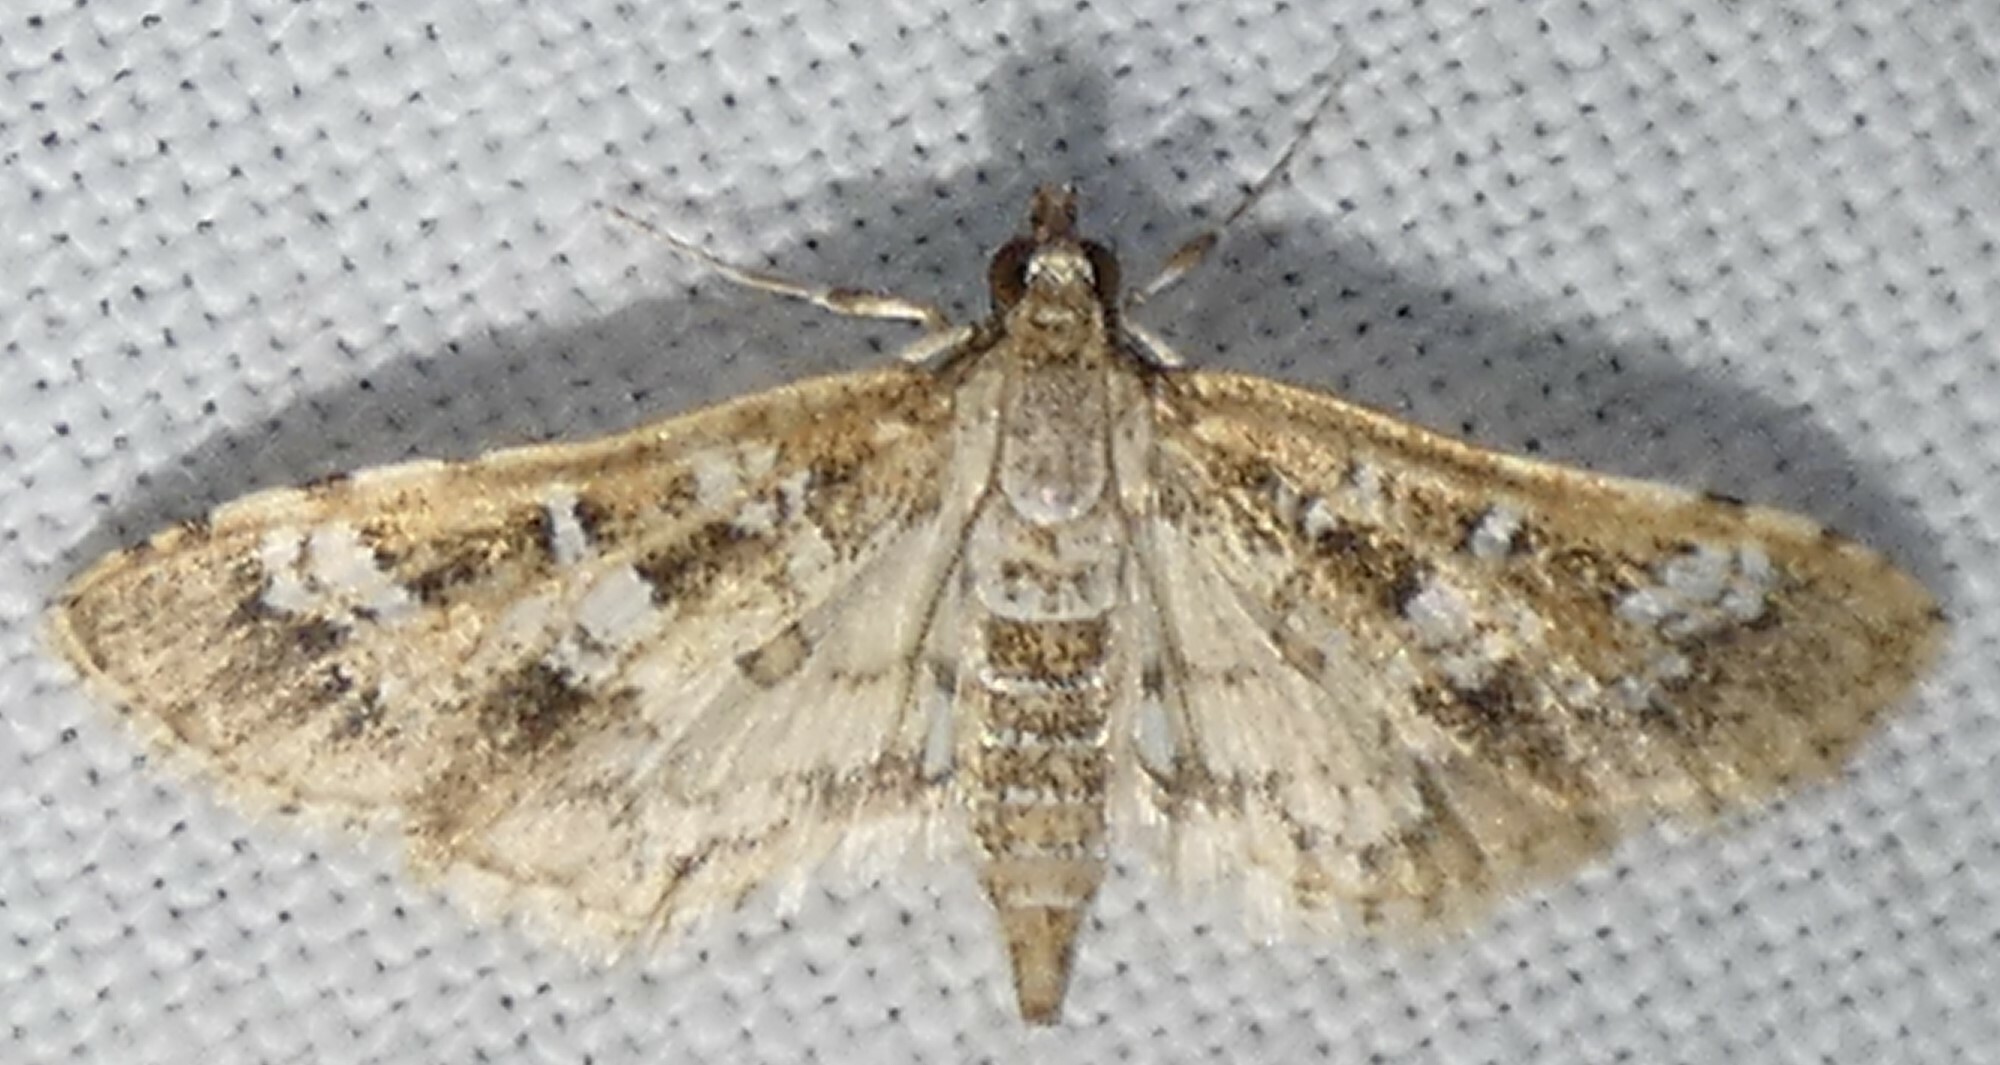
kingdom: Animalia
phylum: Arthropoda
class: Insecta
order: Lepidoptera
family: Crambidae
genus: Samea
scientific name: Samea multiplicalis
